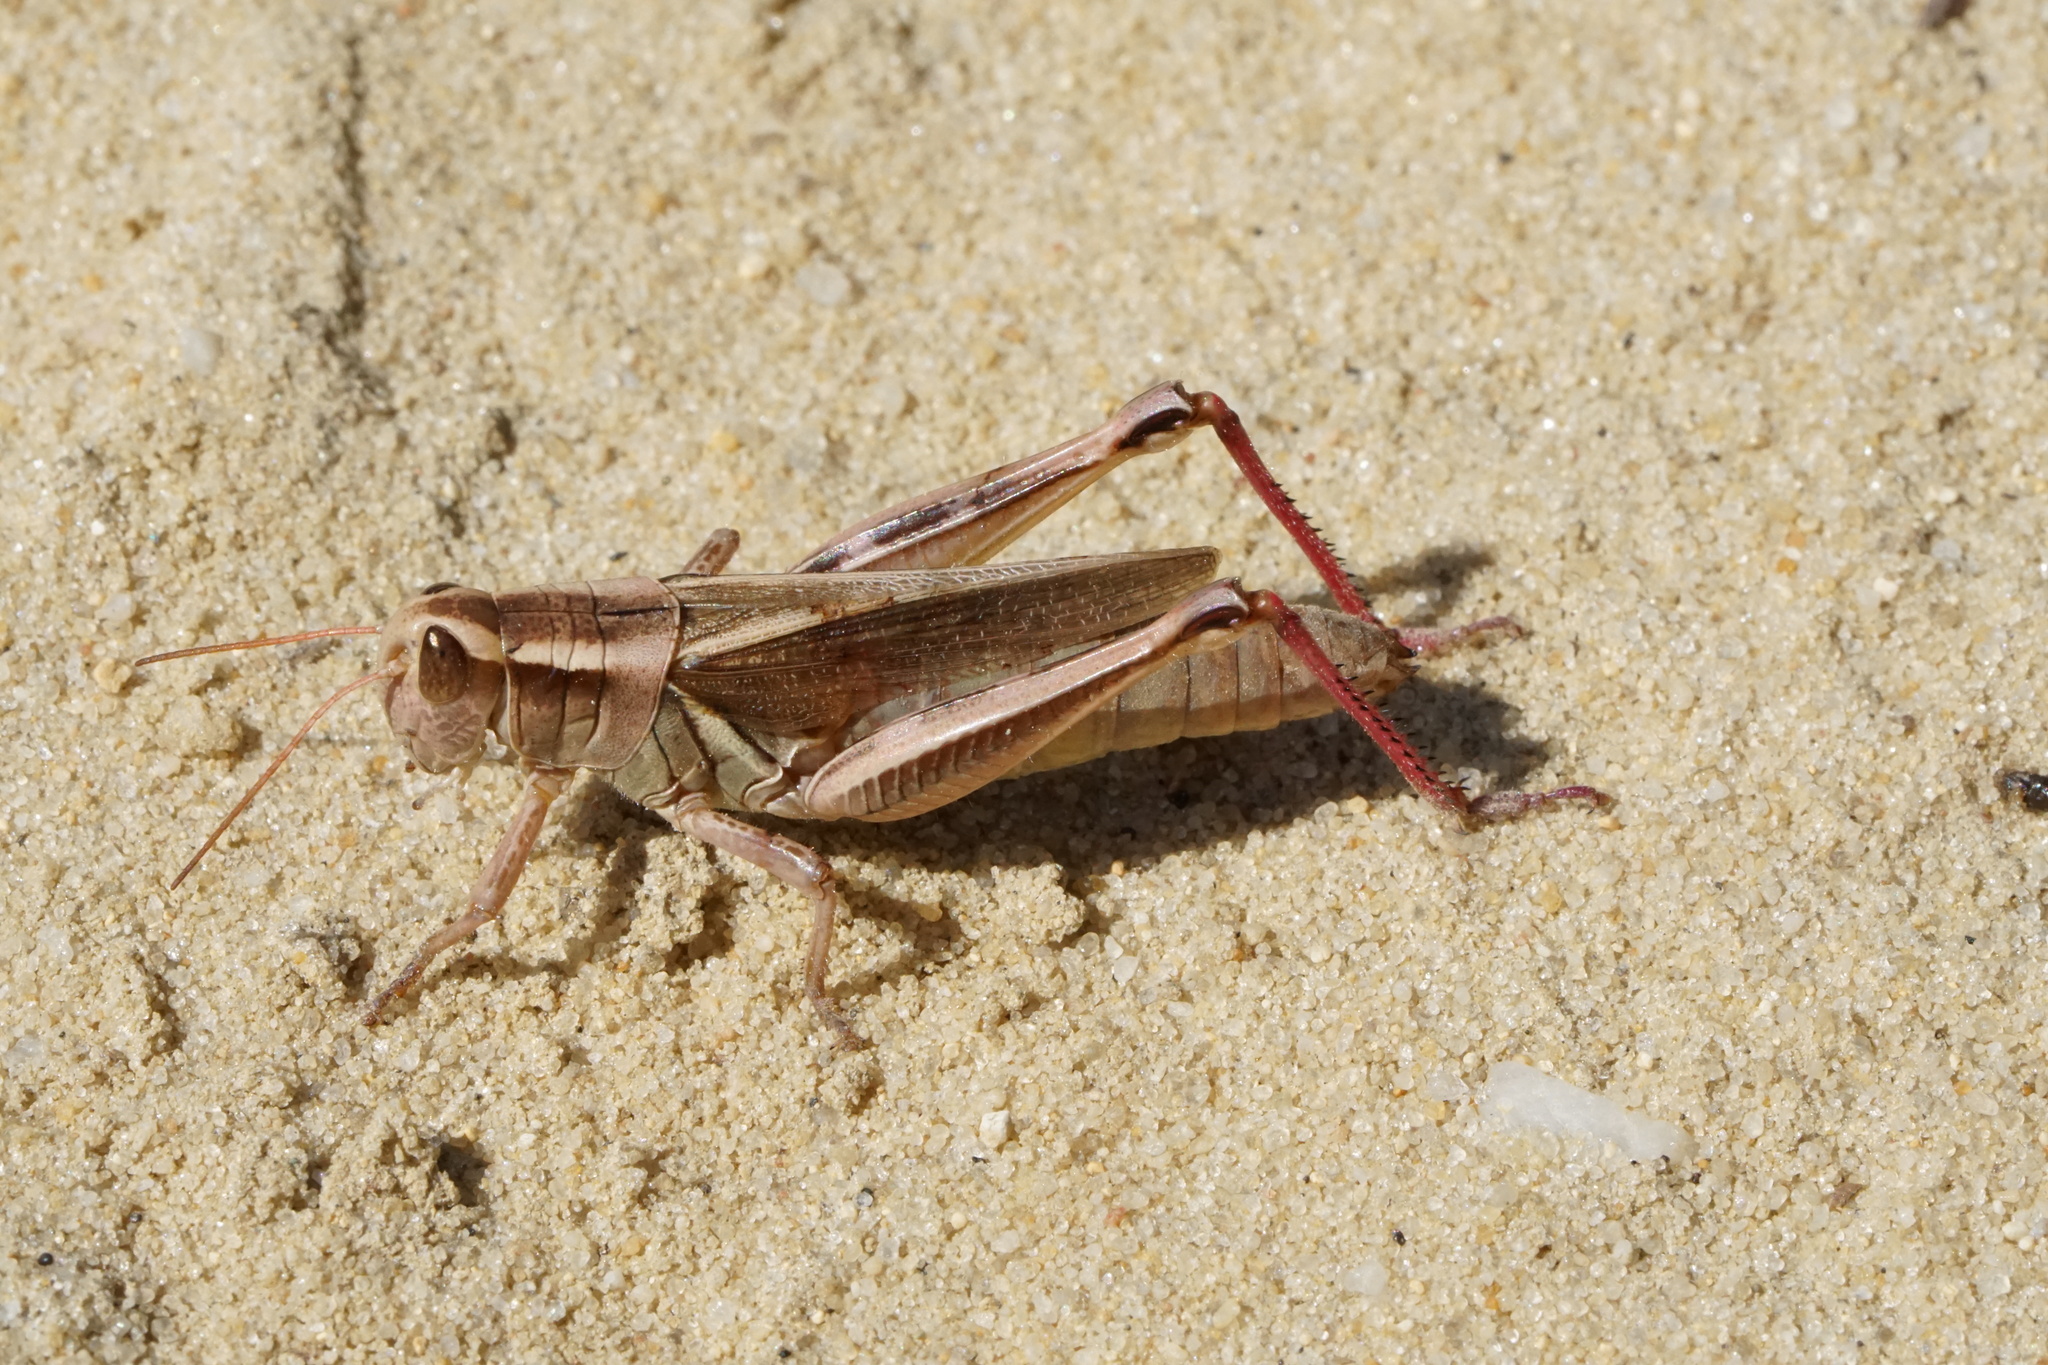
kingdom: Animalia
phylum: Arthropoda
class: Insecta
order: Orthoptera
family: Acrididae
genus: Melanoplus
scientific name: Melanoplus bivittatus
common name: Two-striped grasshopper
